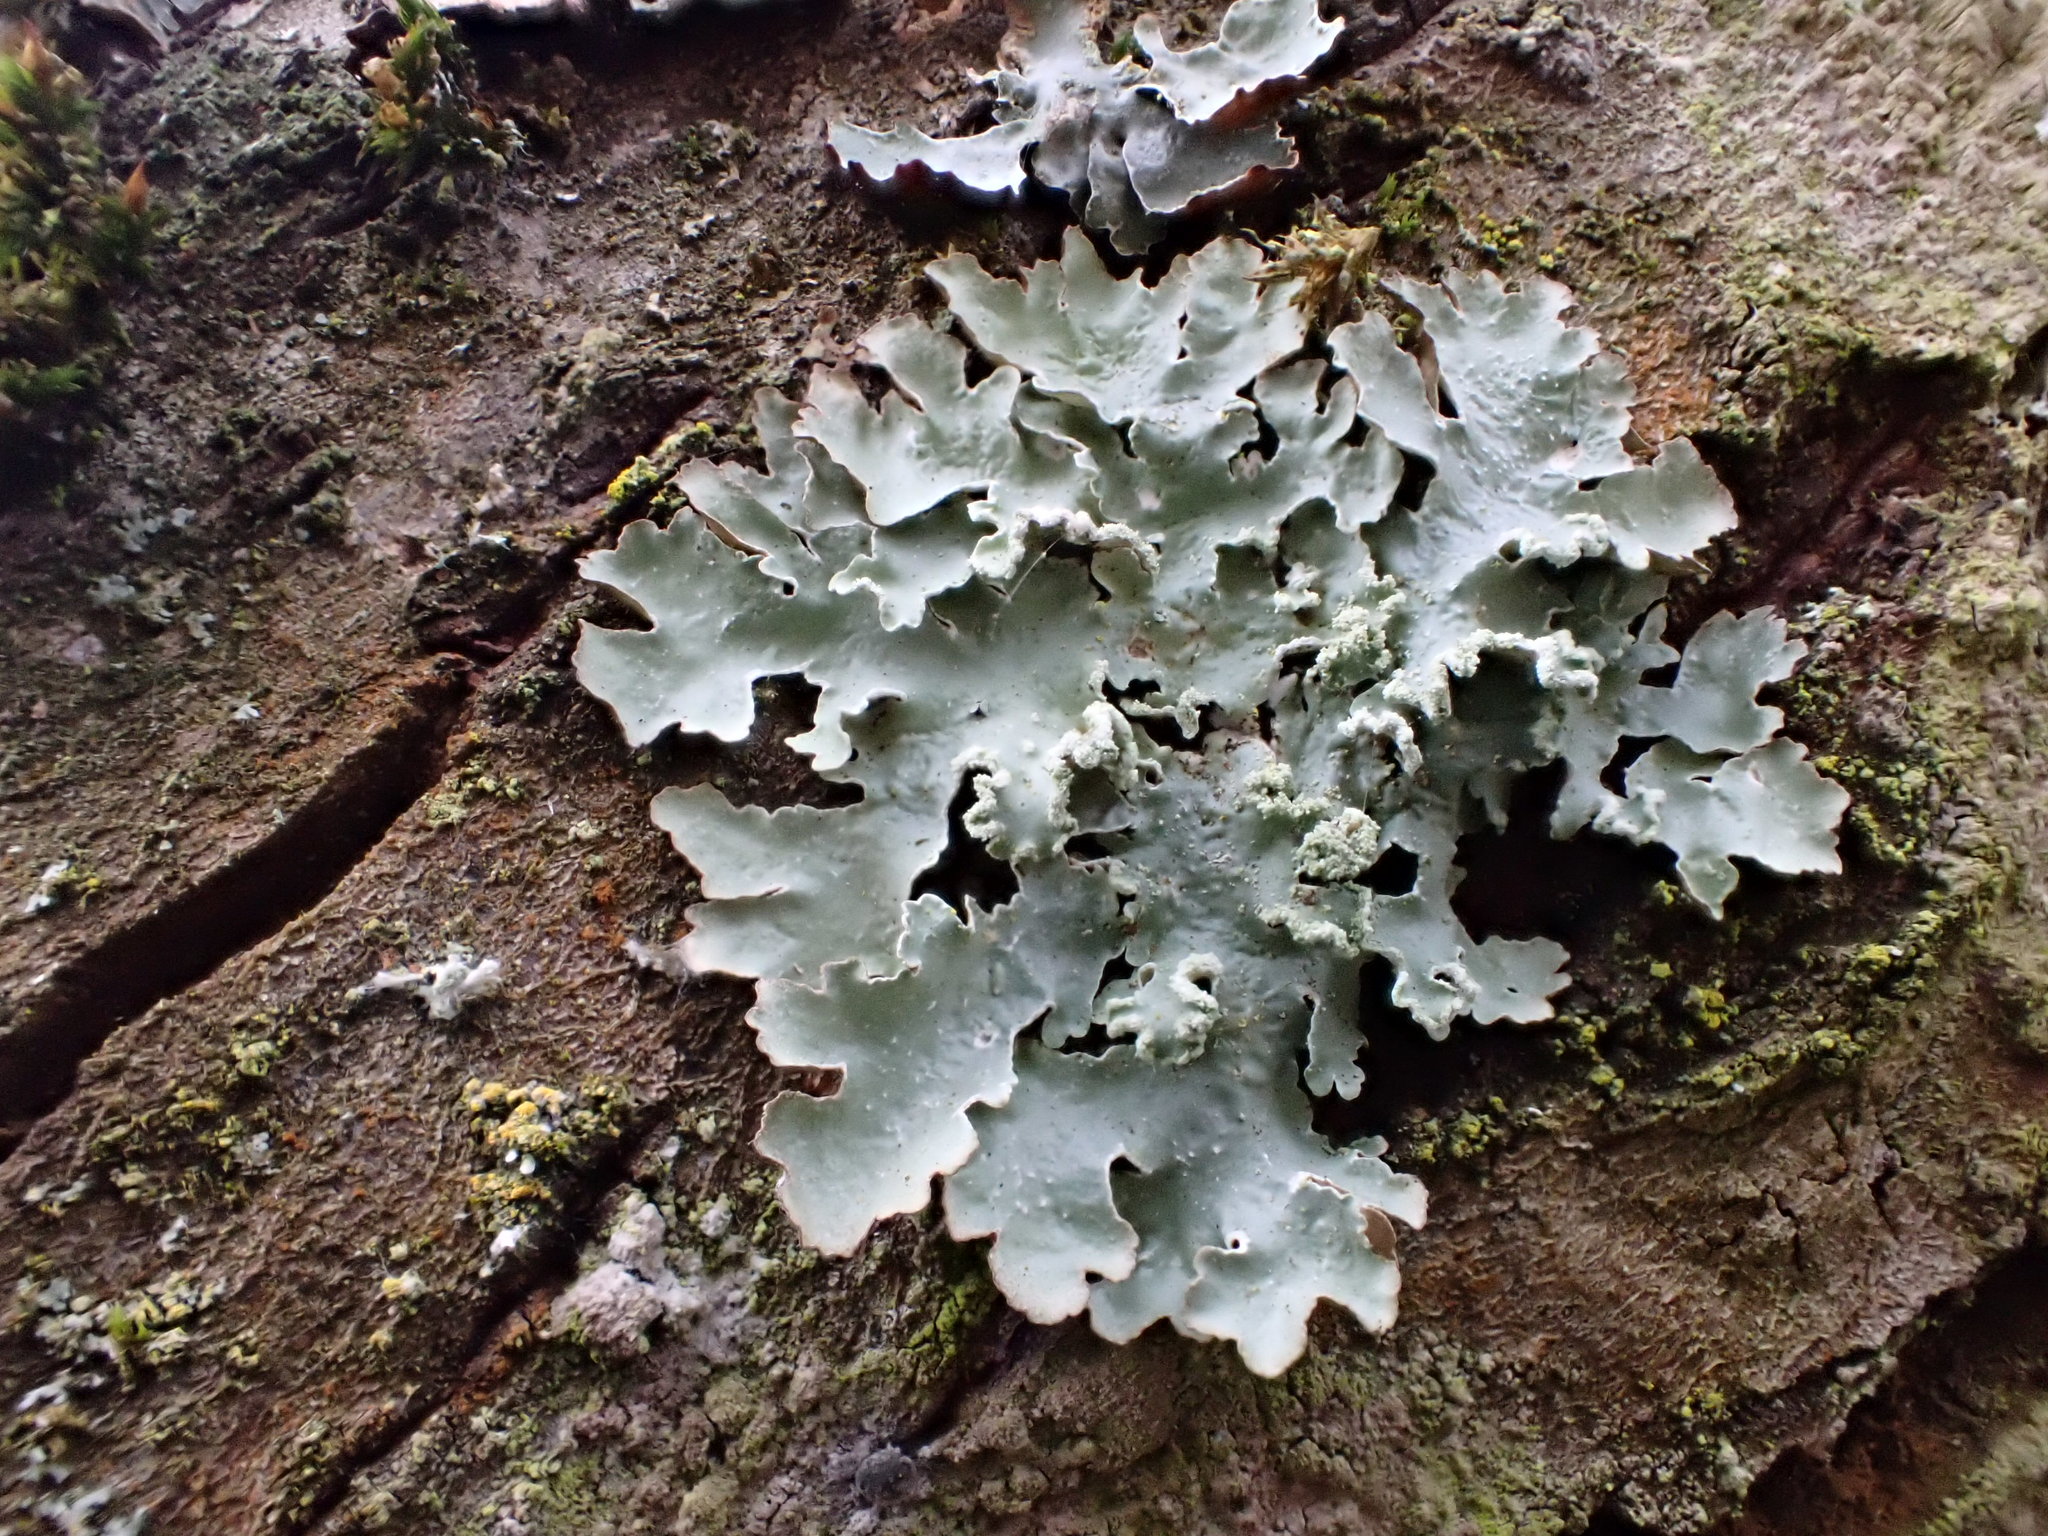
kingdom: Fungi
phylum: Ascomycota
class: Lecanoromycetes
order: Lecanorales
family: Parmeliaceae
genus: Punctelia
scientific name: Punctelia jeckeri
